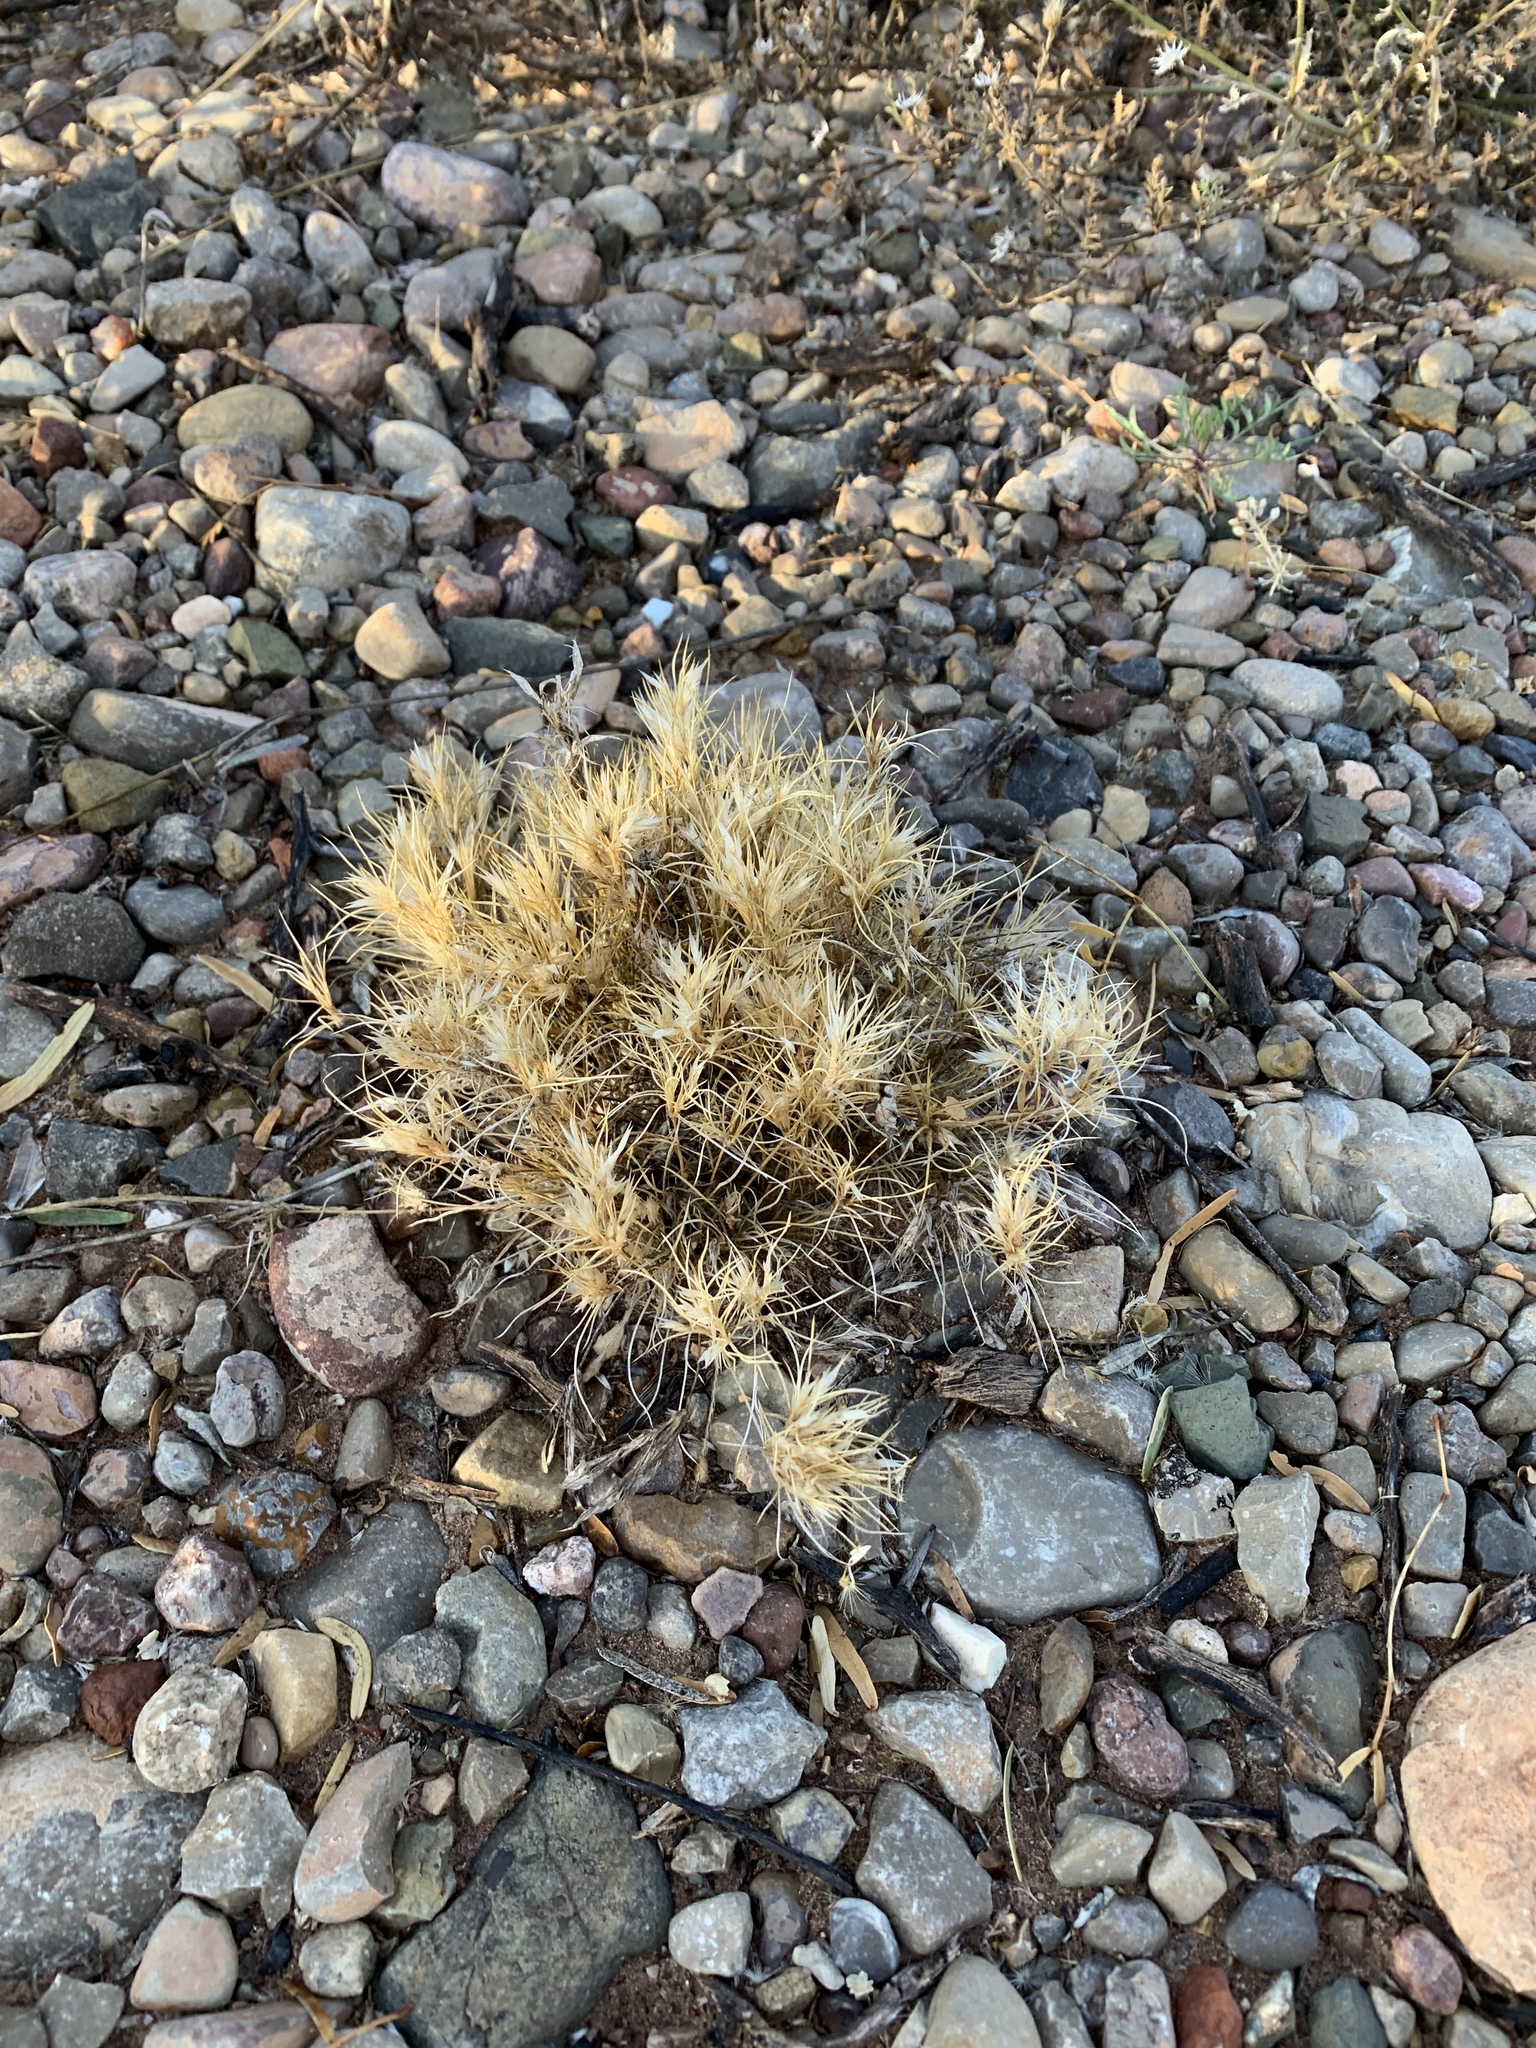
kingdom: Plantae
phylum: Tracheophyta
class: Liliopsida
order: Poales
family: Poaceae
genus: Dasyochloa
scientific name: Dasyochloa pulchella
